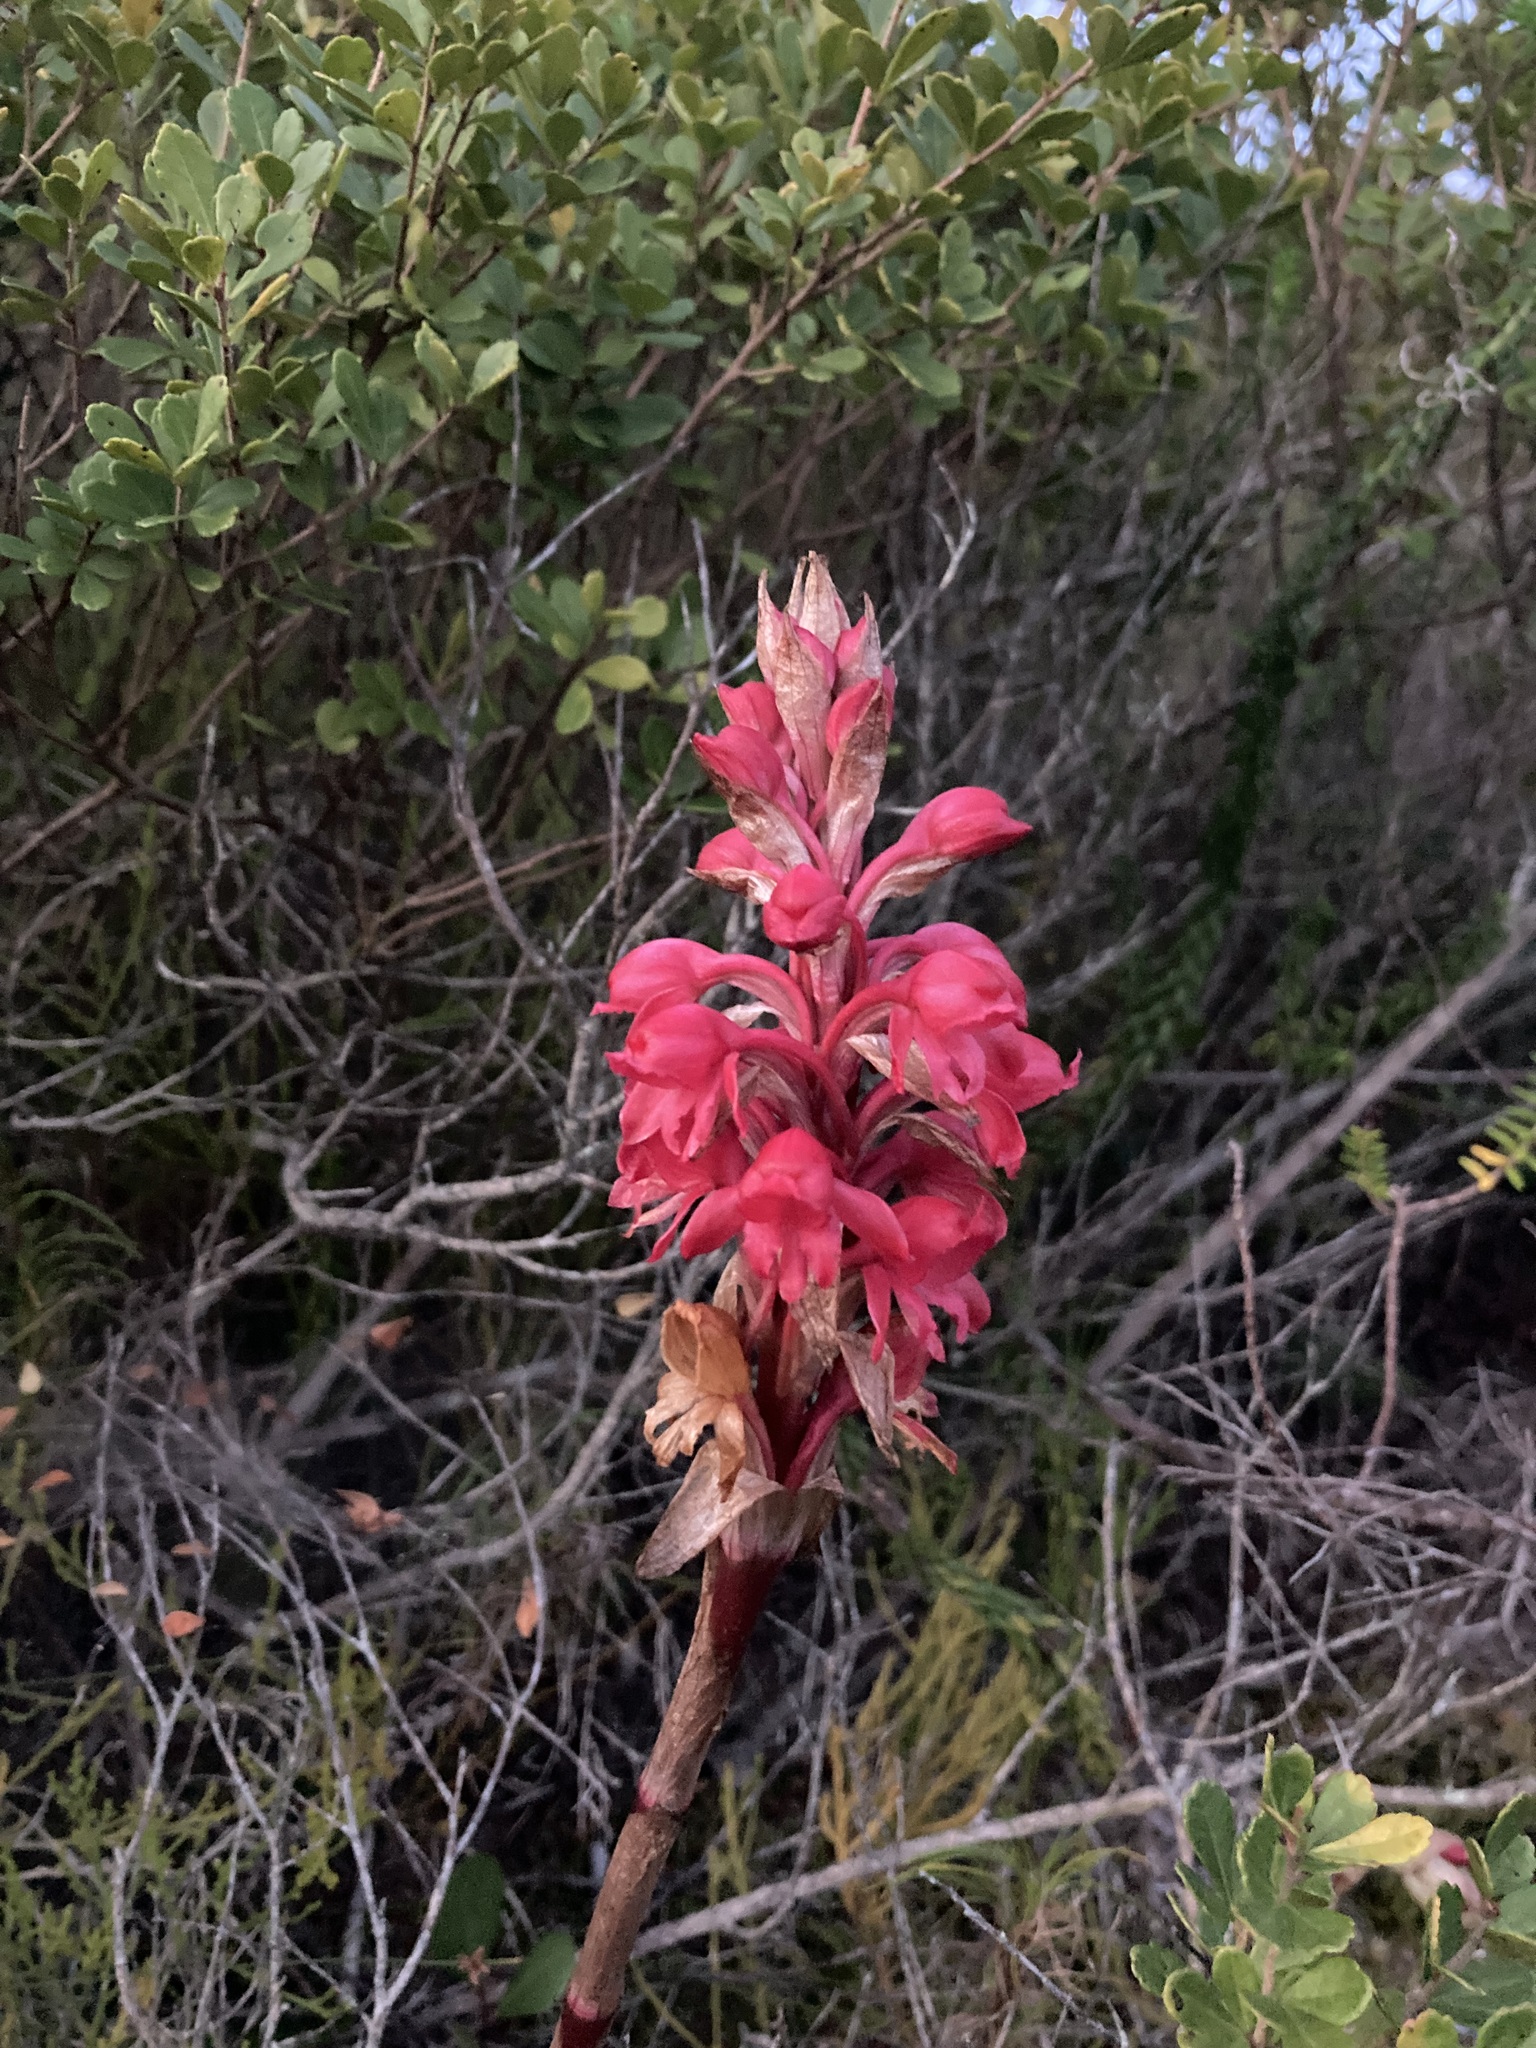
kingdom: Plantae
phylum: Tracheophyta
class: Liliopsida
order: Asparagales
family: Orchidaceae
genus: Satyrium
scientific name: Satyrium princeps
